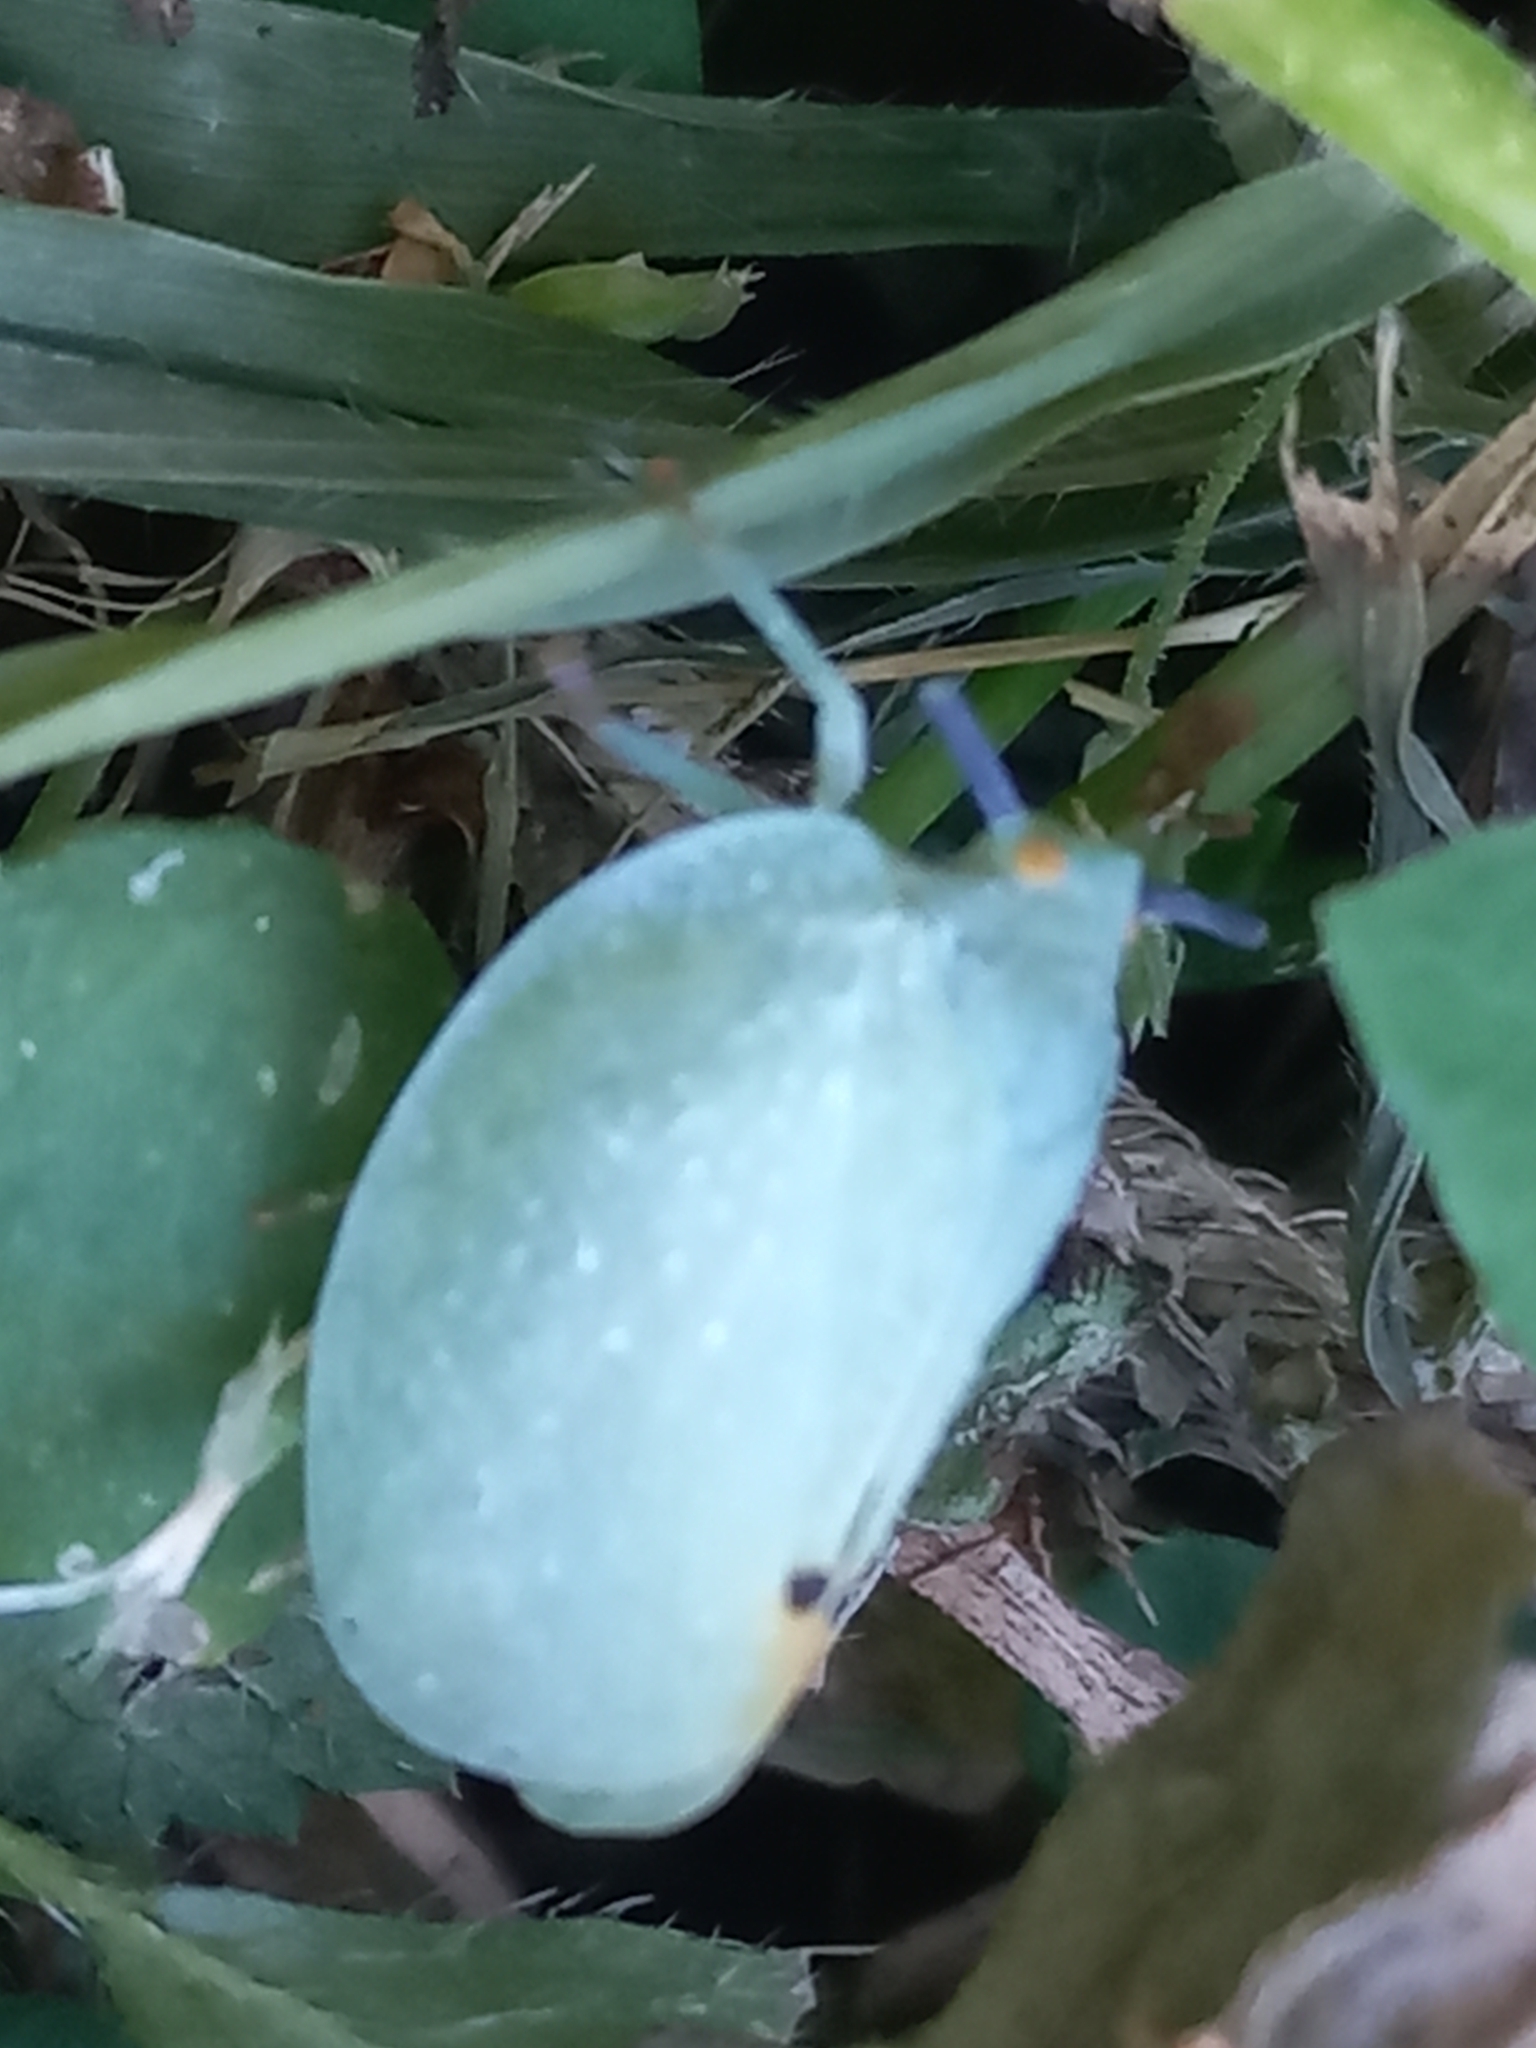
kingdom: Animalia
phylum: Arthropoda
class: Insecta
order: Hemiptera
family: Flatidae
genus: Dalapax
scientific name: Dalapax postica
